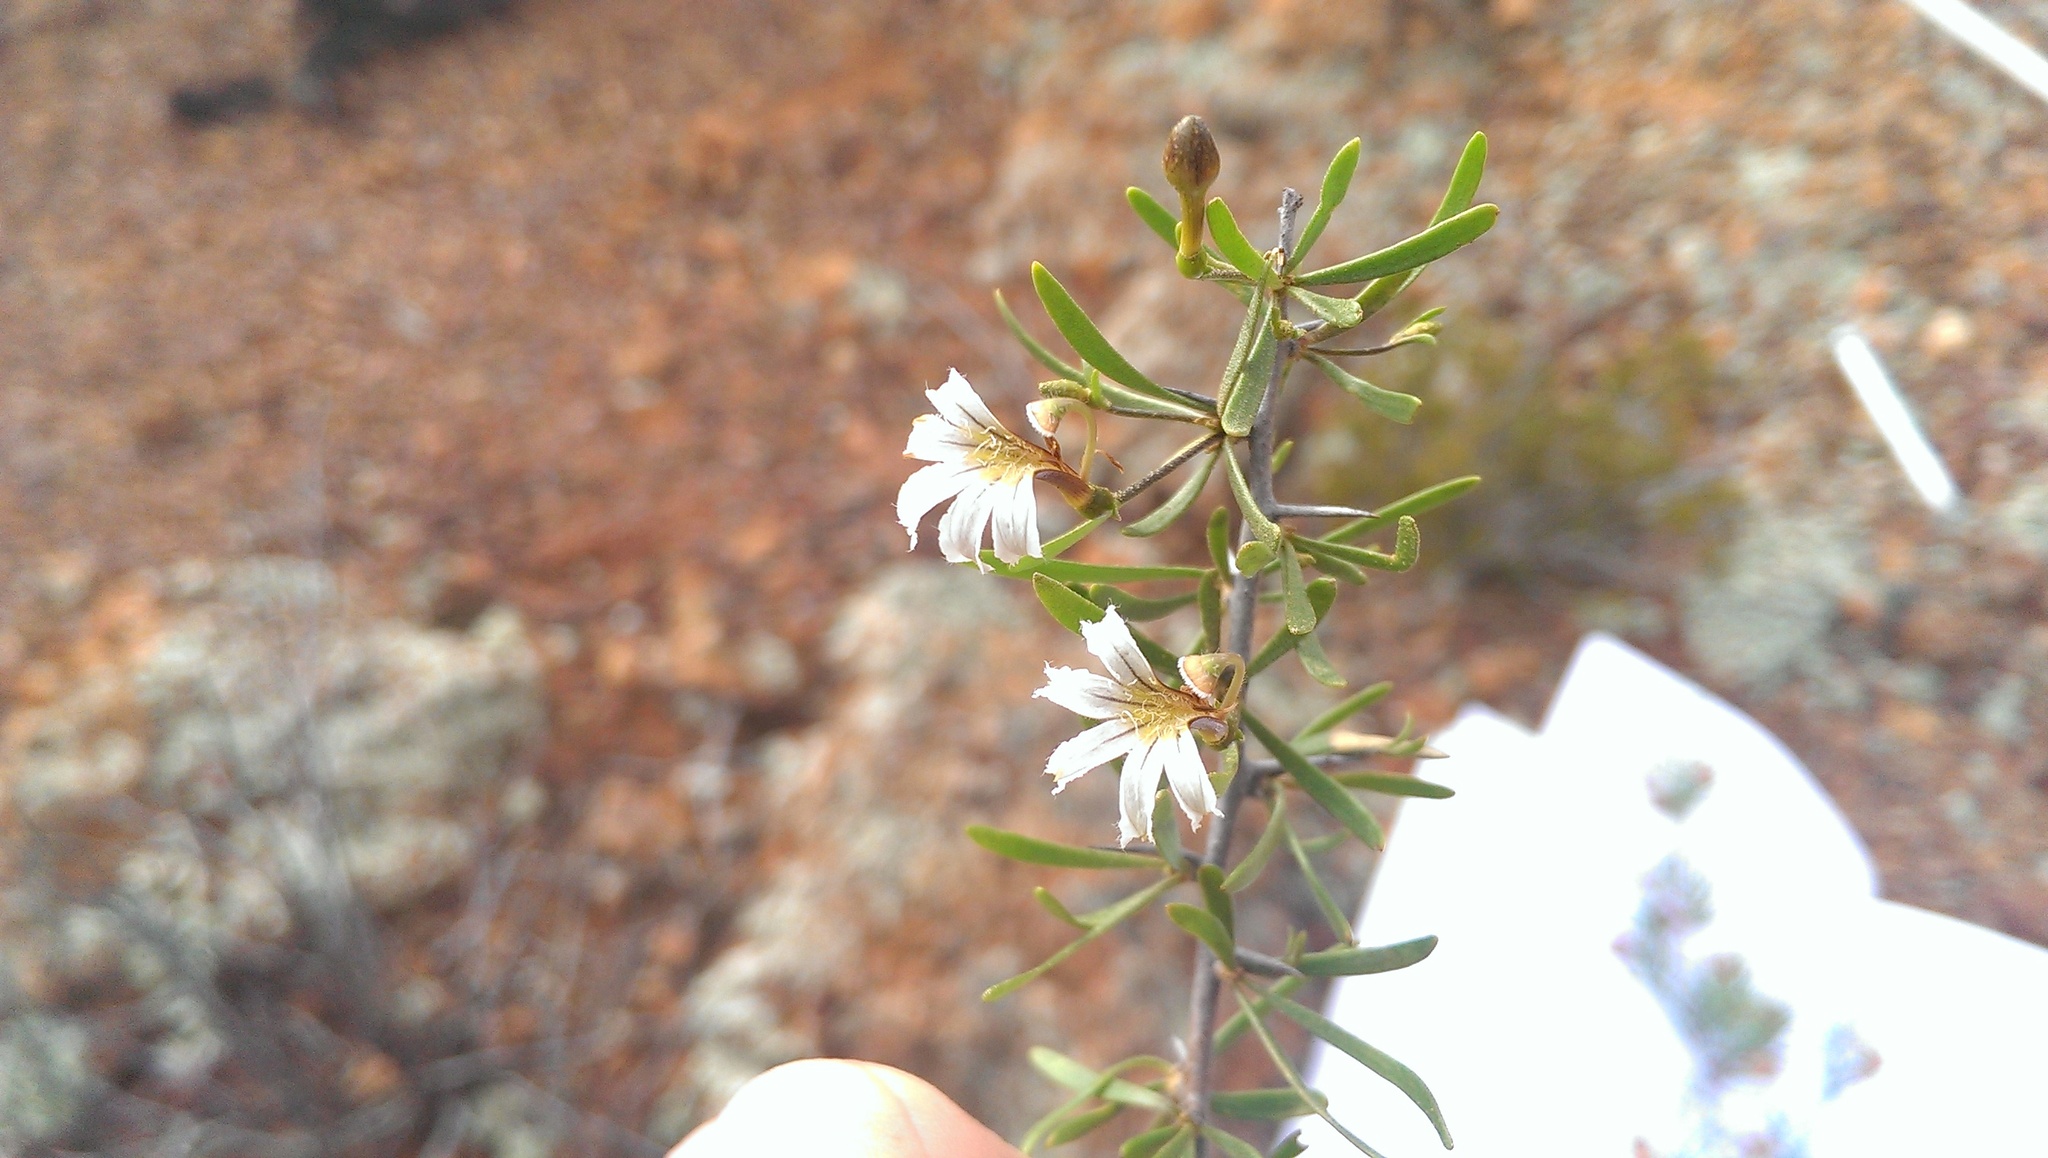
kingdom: Plantae
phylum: Tracheophyta
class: Magnoliopsida
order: Asterales
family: Goodeniaceae
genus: Scaevola
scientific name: Scaevola spinescens
